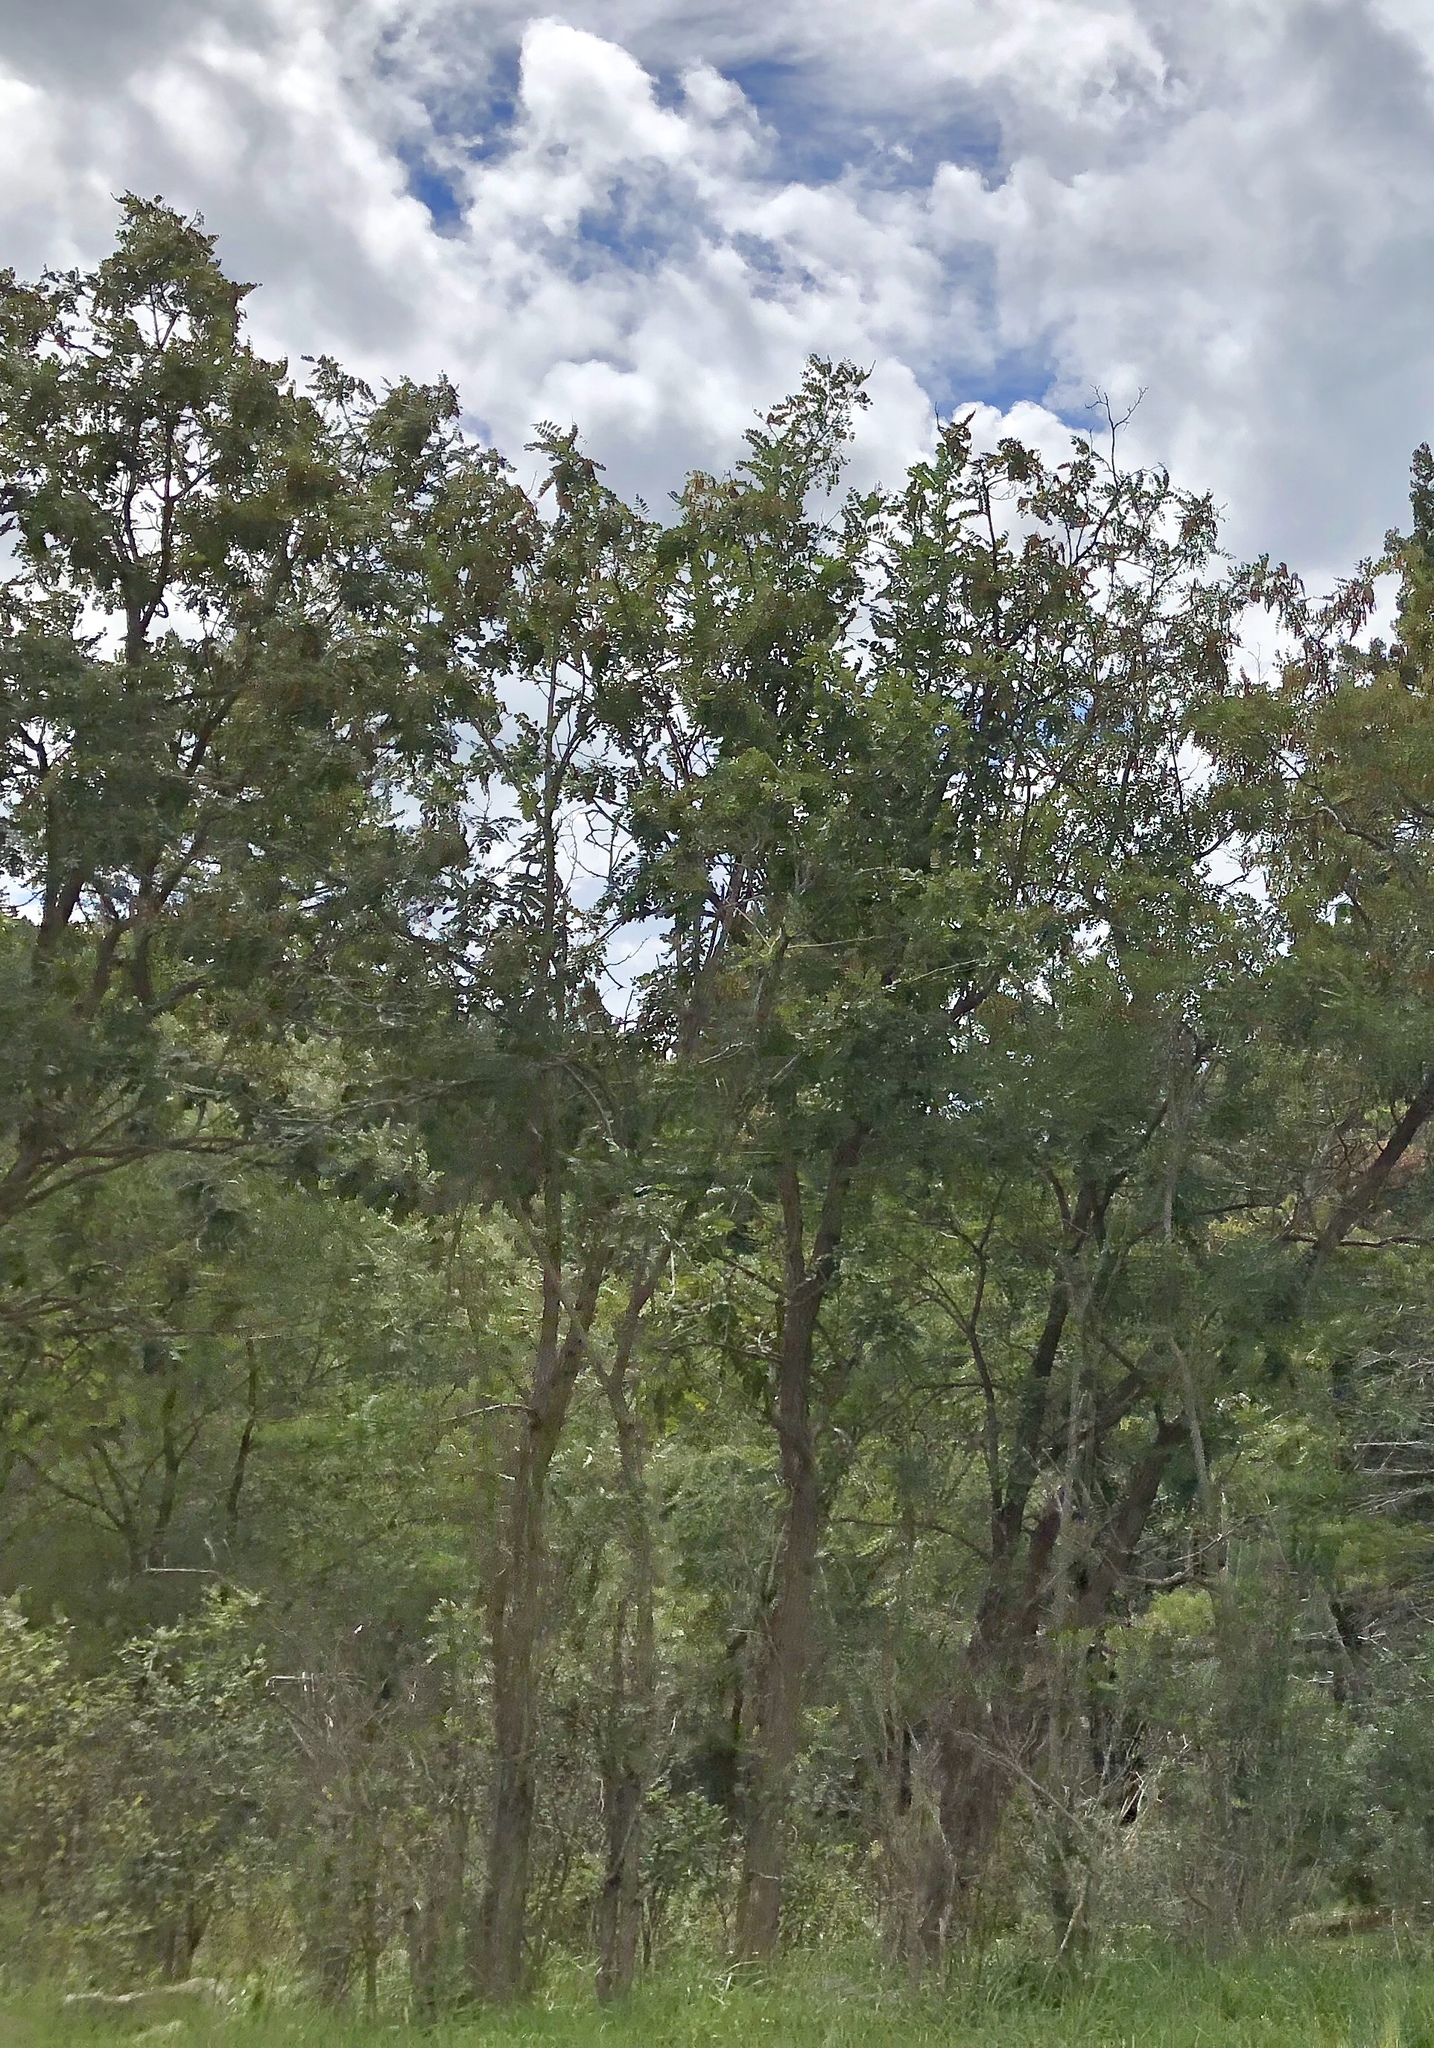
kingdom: Plantae
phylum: Tracheophyta
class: Magnoliopsida
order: Fabales
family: Fabaceae
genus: Robinia
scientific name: Robinia neomexicana
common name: New mexico locust
